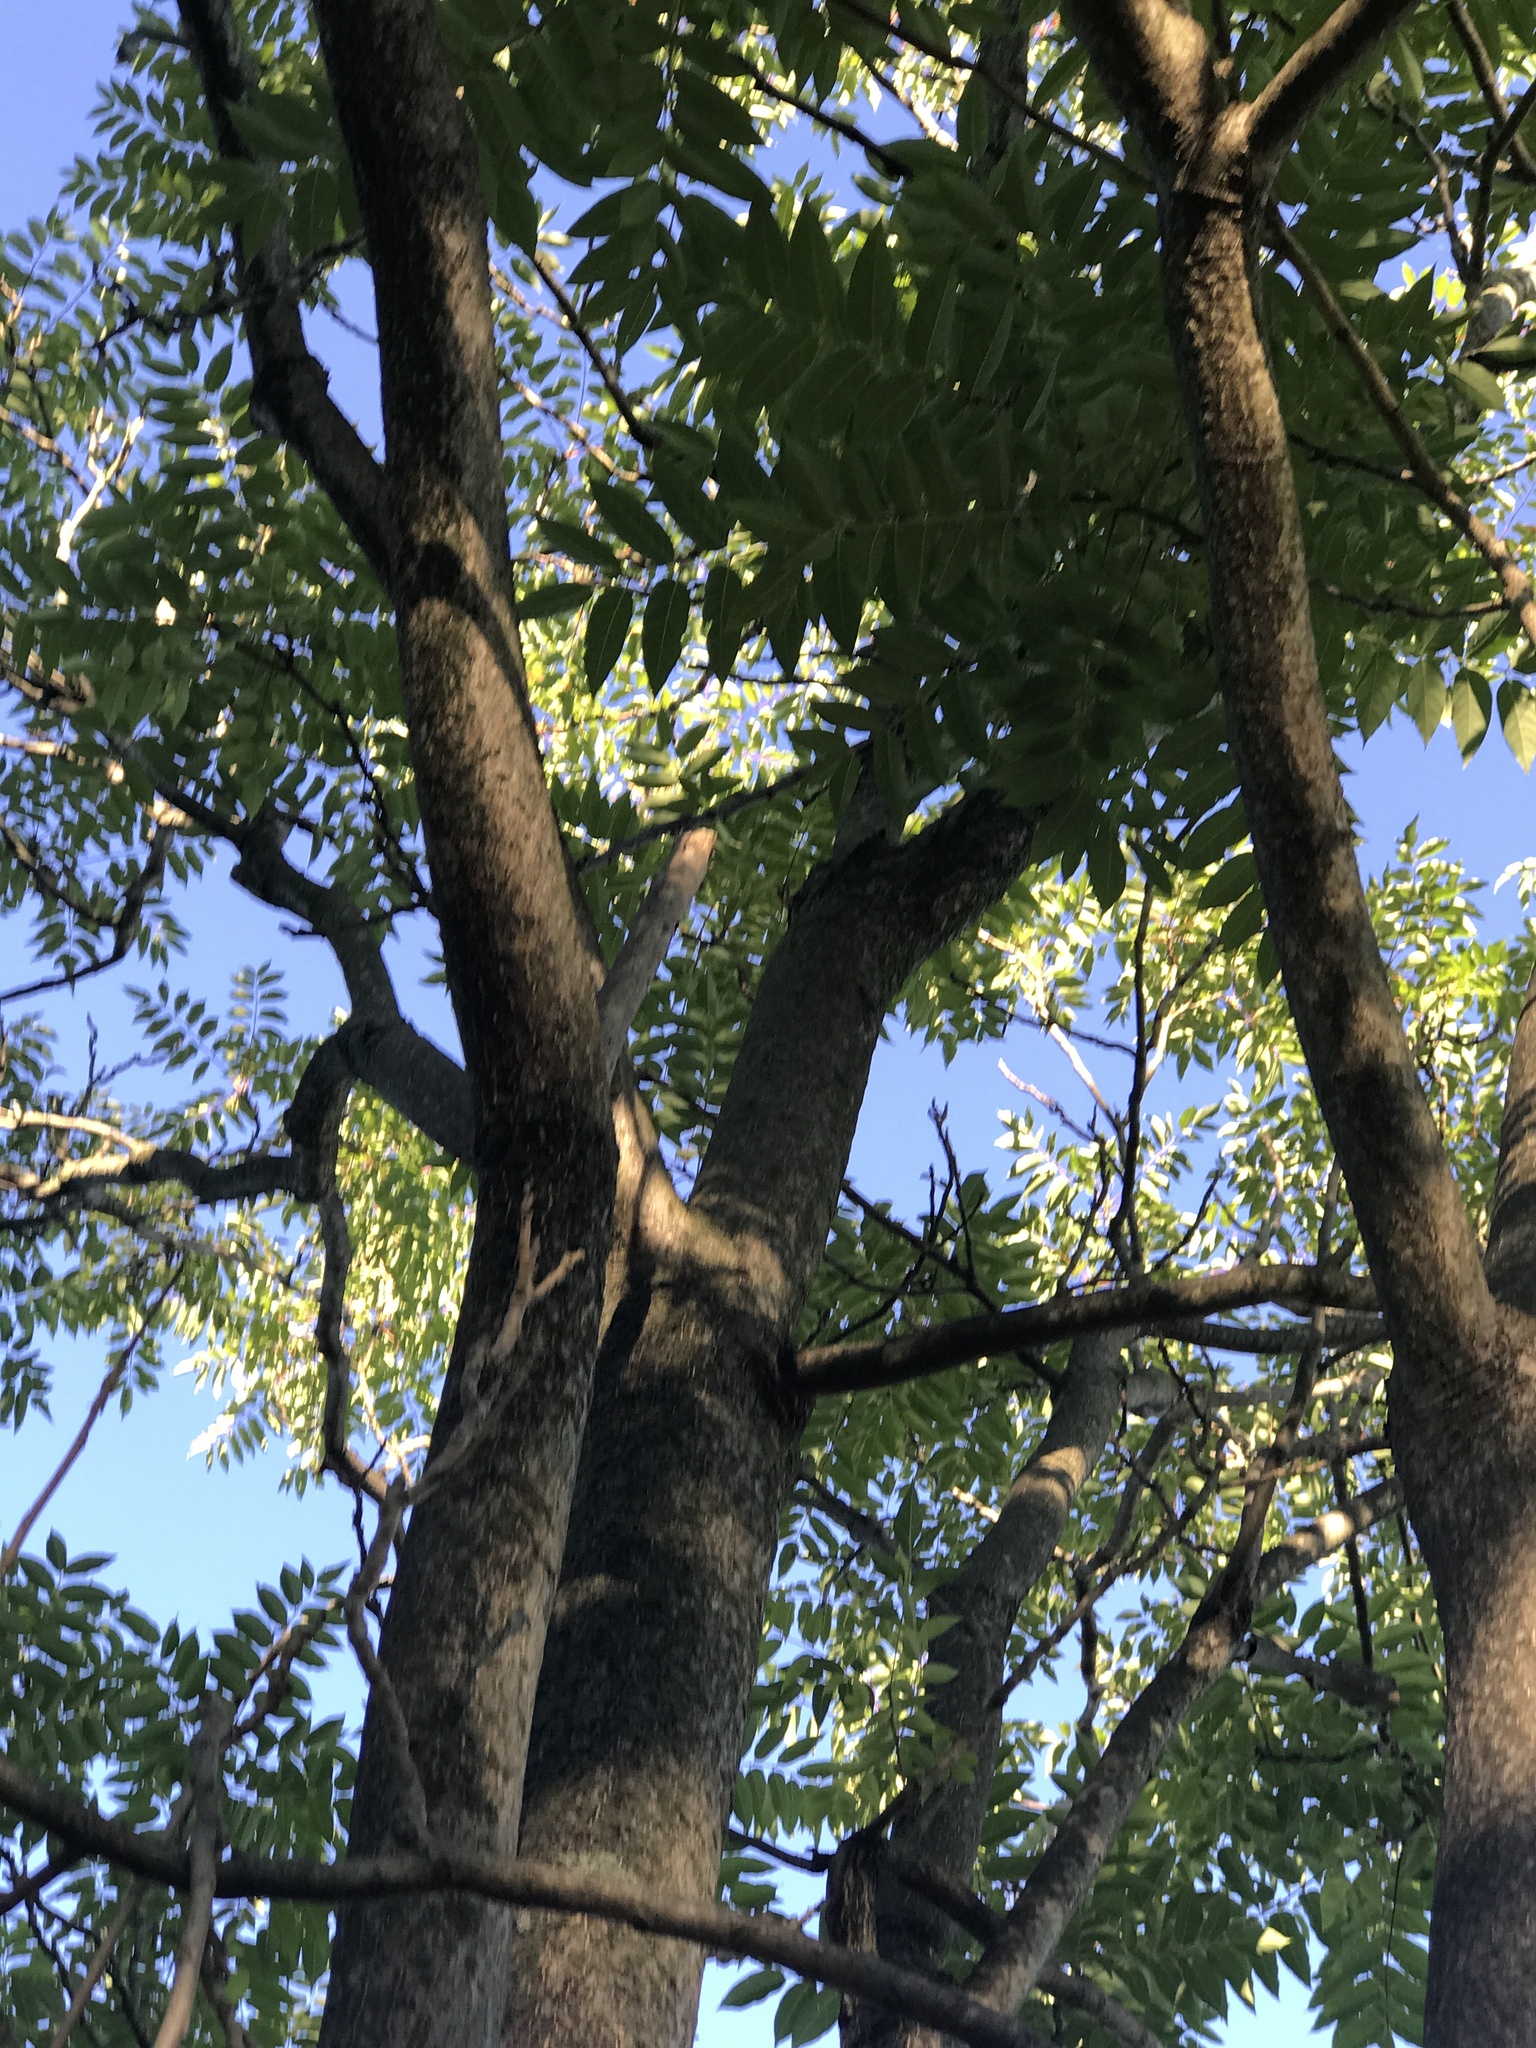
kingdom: Plantae
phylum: Tracheophyta
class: Magnoliopsida
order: Sapindales
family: Simaroubaceae
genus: Ailanthus
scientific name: Ailanthus altissima
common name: Tree-of-heaven
